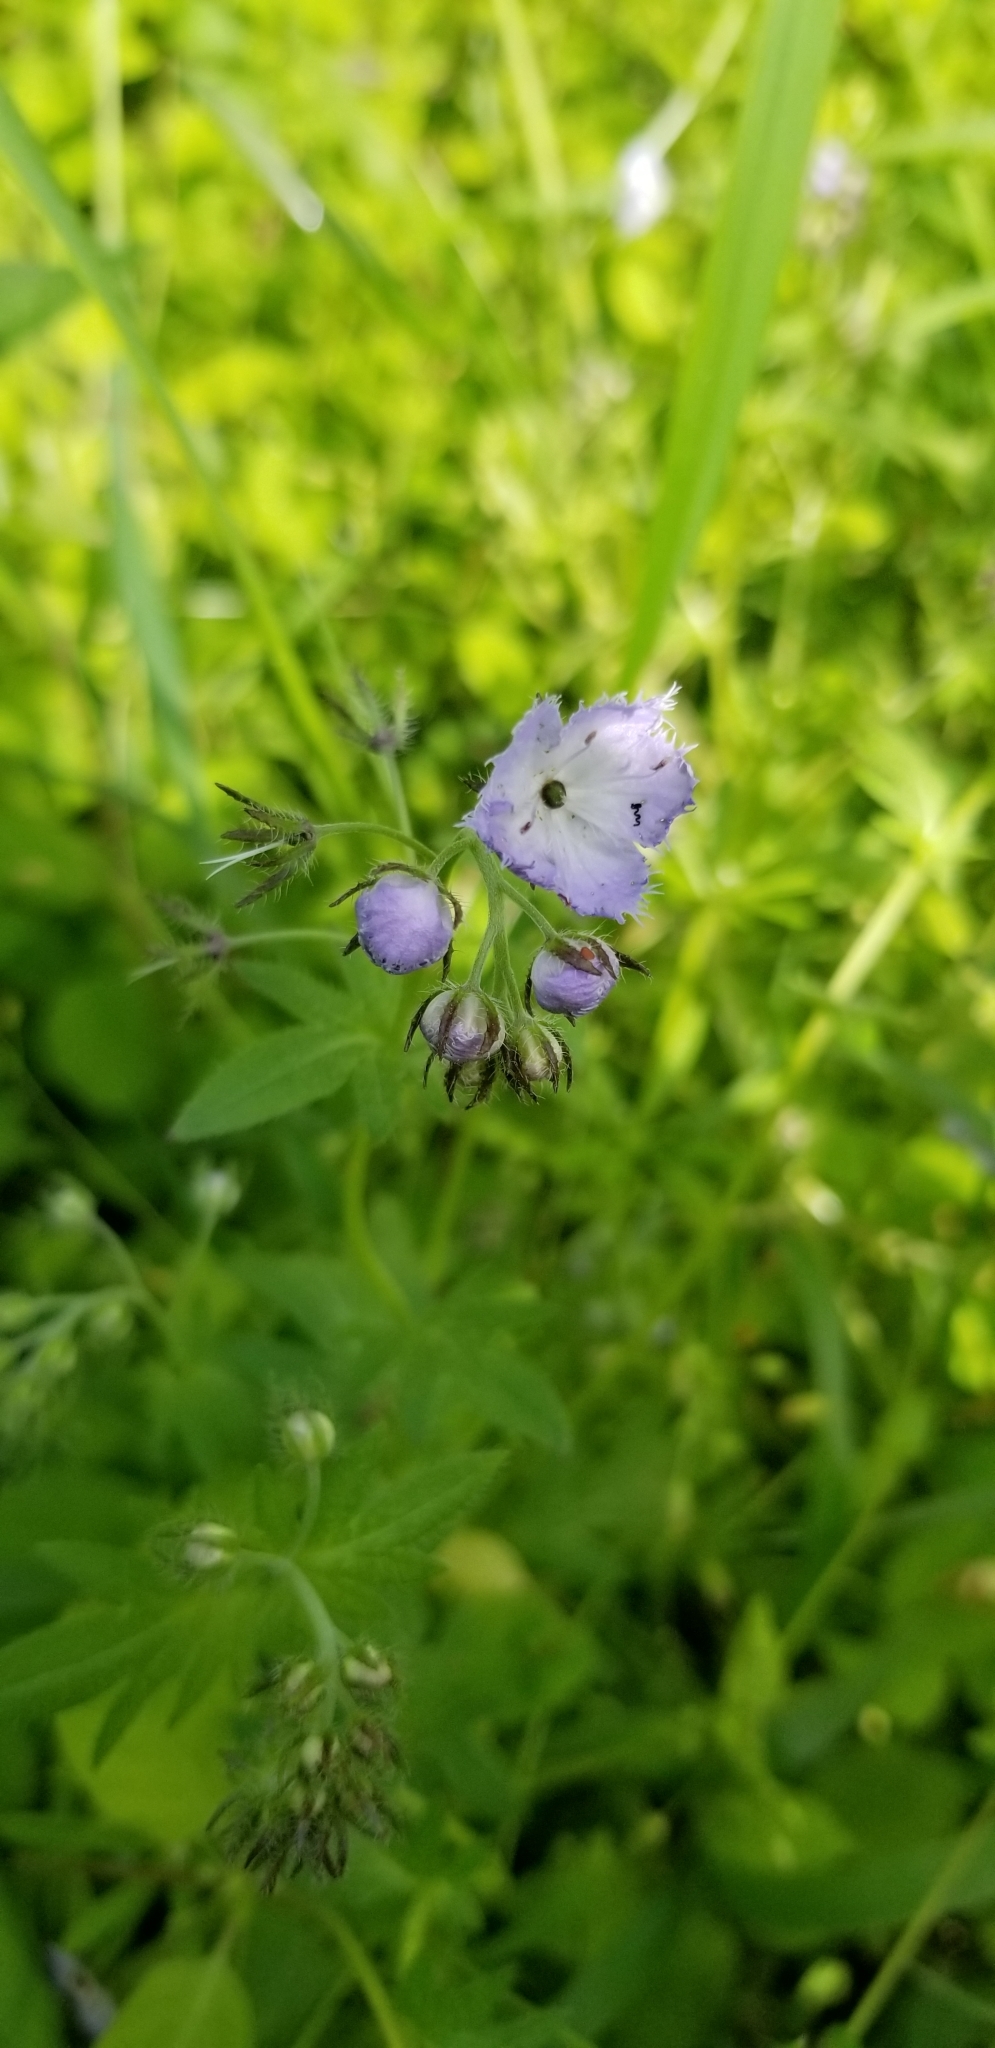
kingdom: Plantae
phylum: Tracheophyta
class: Magnoliopsida
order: Boraginales
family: Hydrophyllaceae
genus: Phacelia
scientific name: Phacelia purshii
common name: Miami-mist
